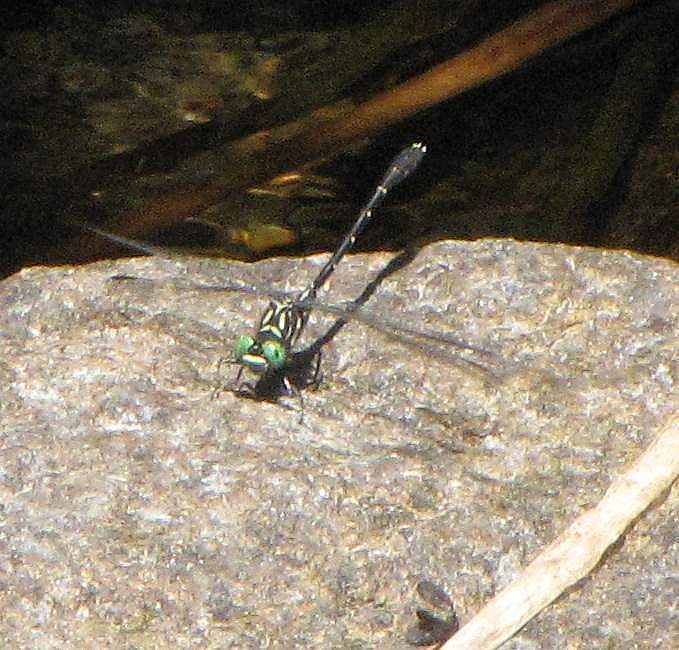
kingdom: Animalia
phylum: Arthropoda
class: Insecta
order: Odonata
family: Gomphidae
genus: Stylogomphus
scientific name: Stylogomphus albistylus
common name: Eastern least clubtail
